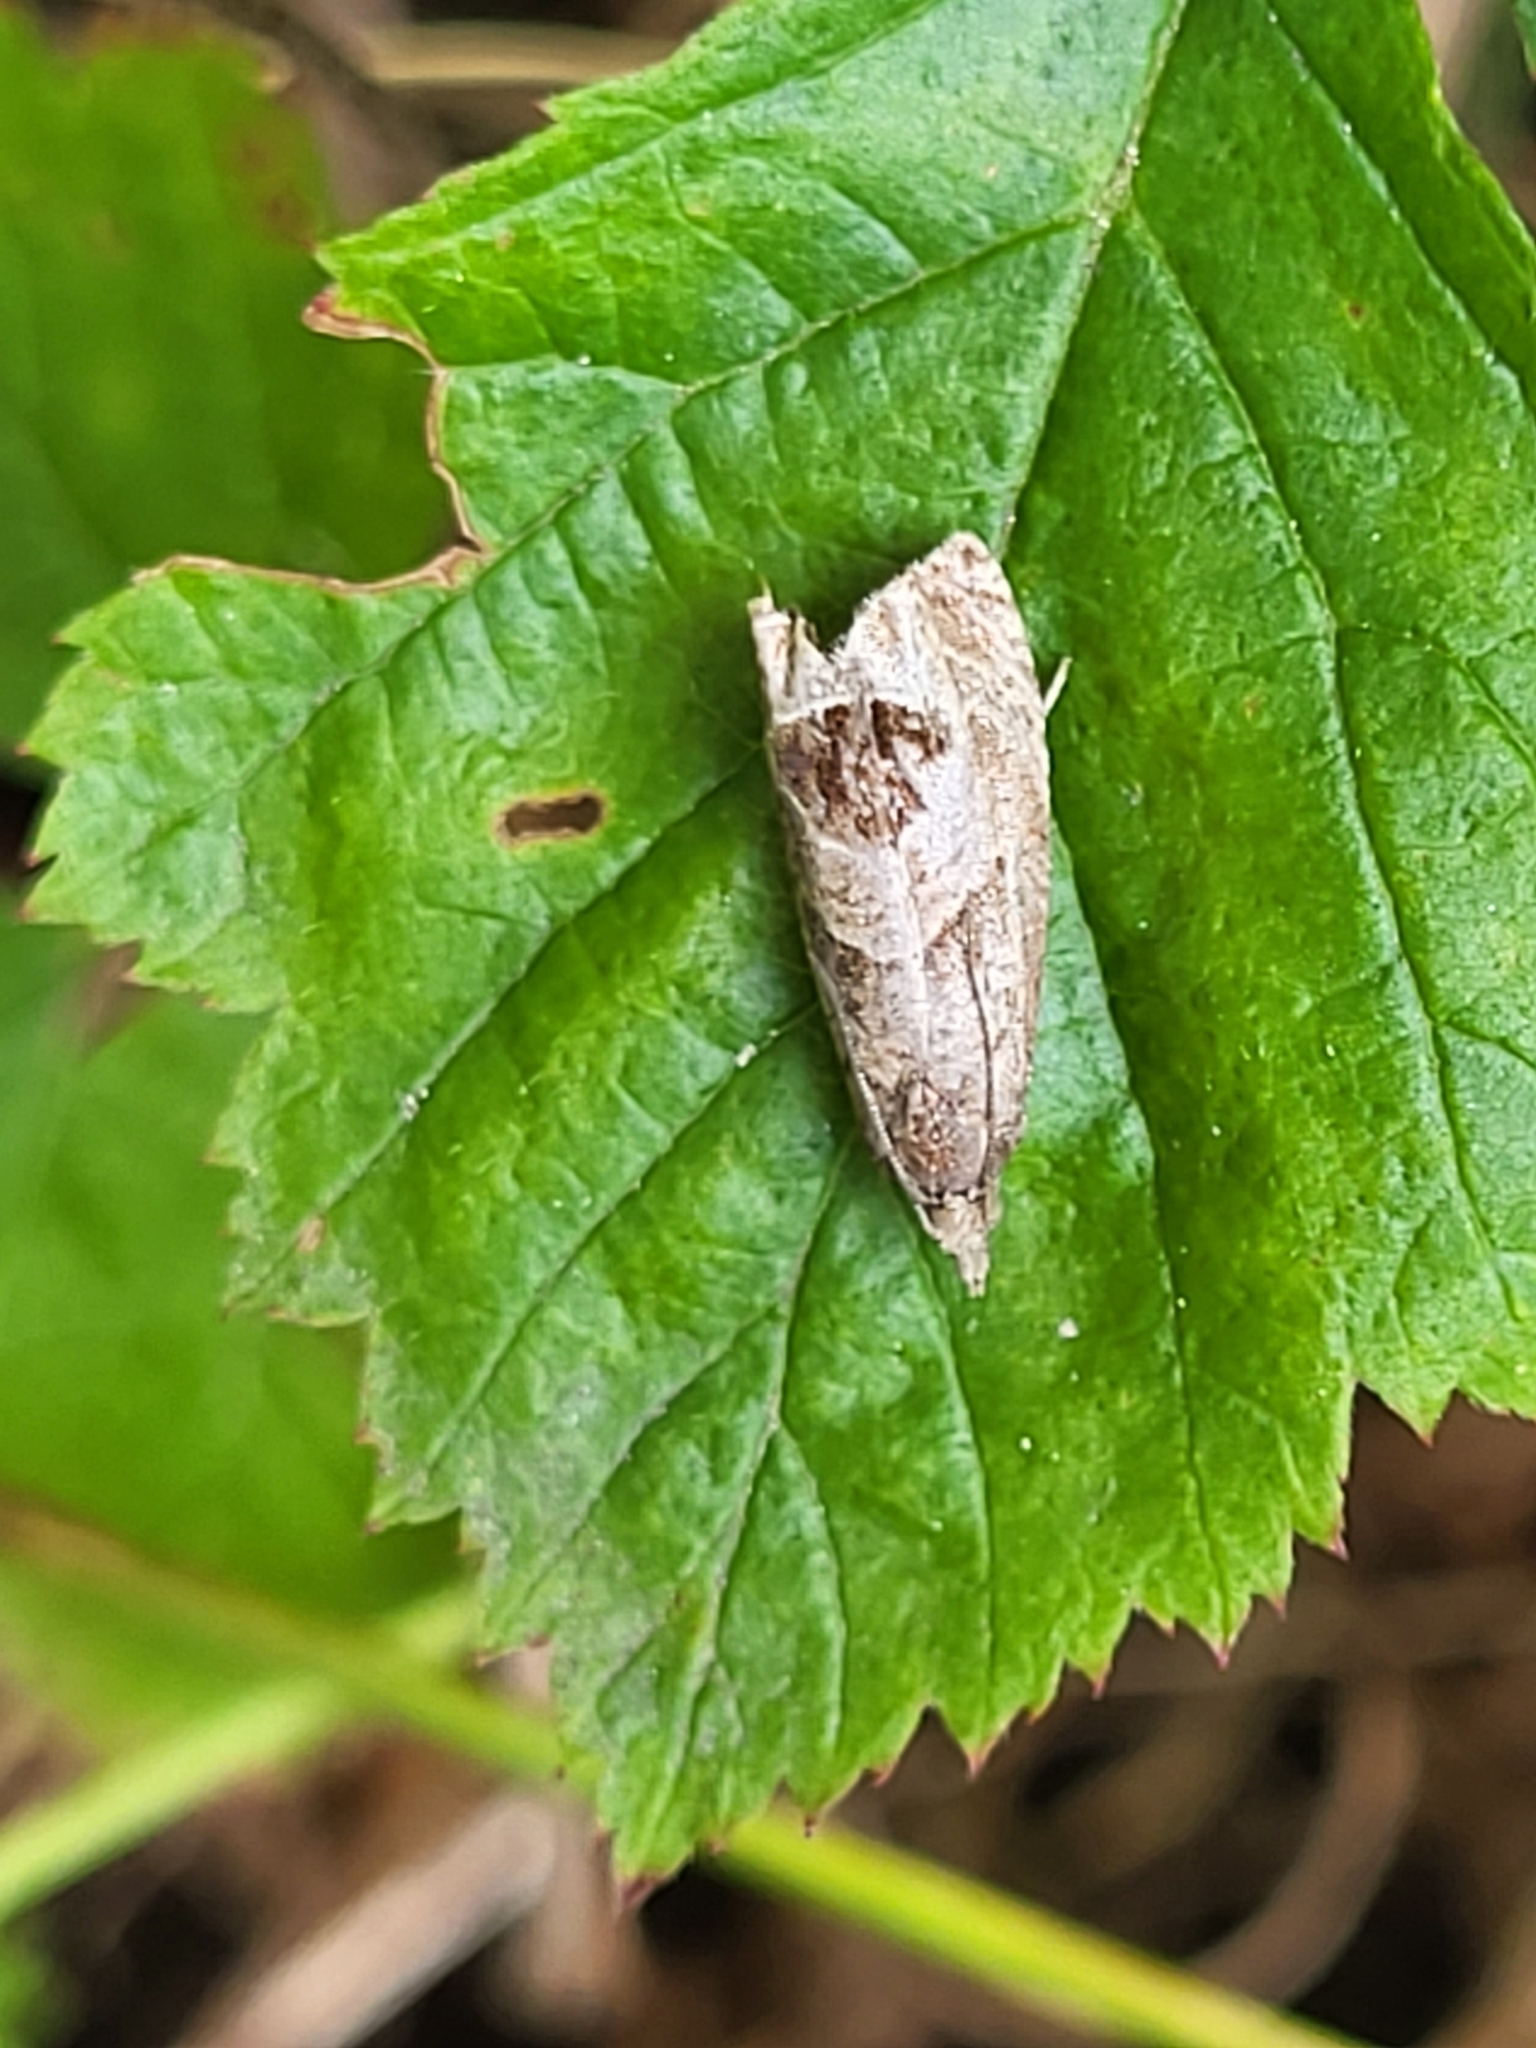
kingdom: Animalia
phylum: Arthropoda
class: Insecta
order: Lepidoptera
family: Tortricidae
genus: Notocelia
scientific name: Notocelia uddmanniana
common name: Bramble shoot moth
